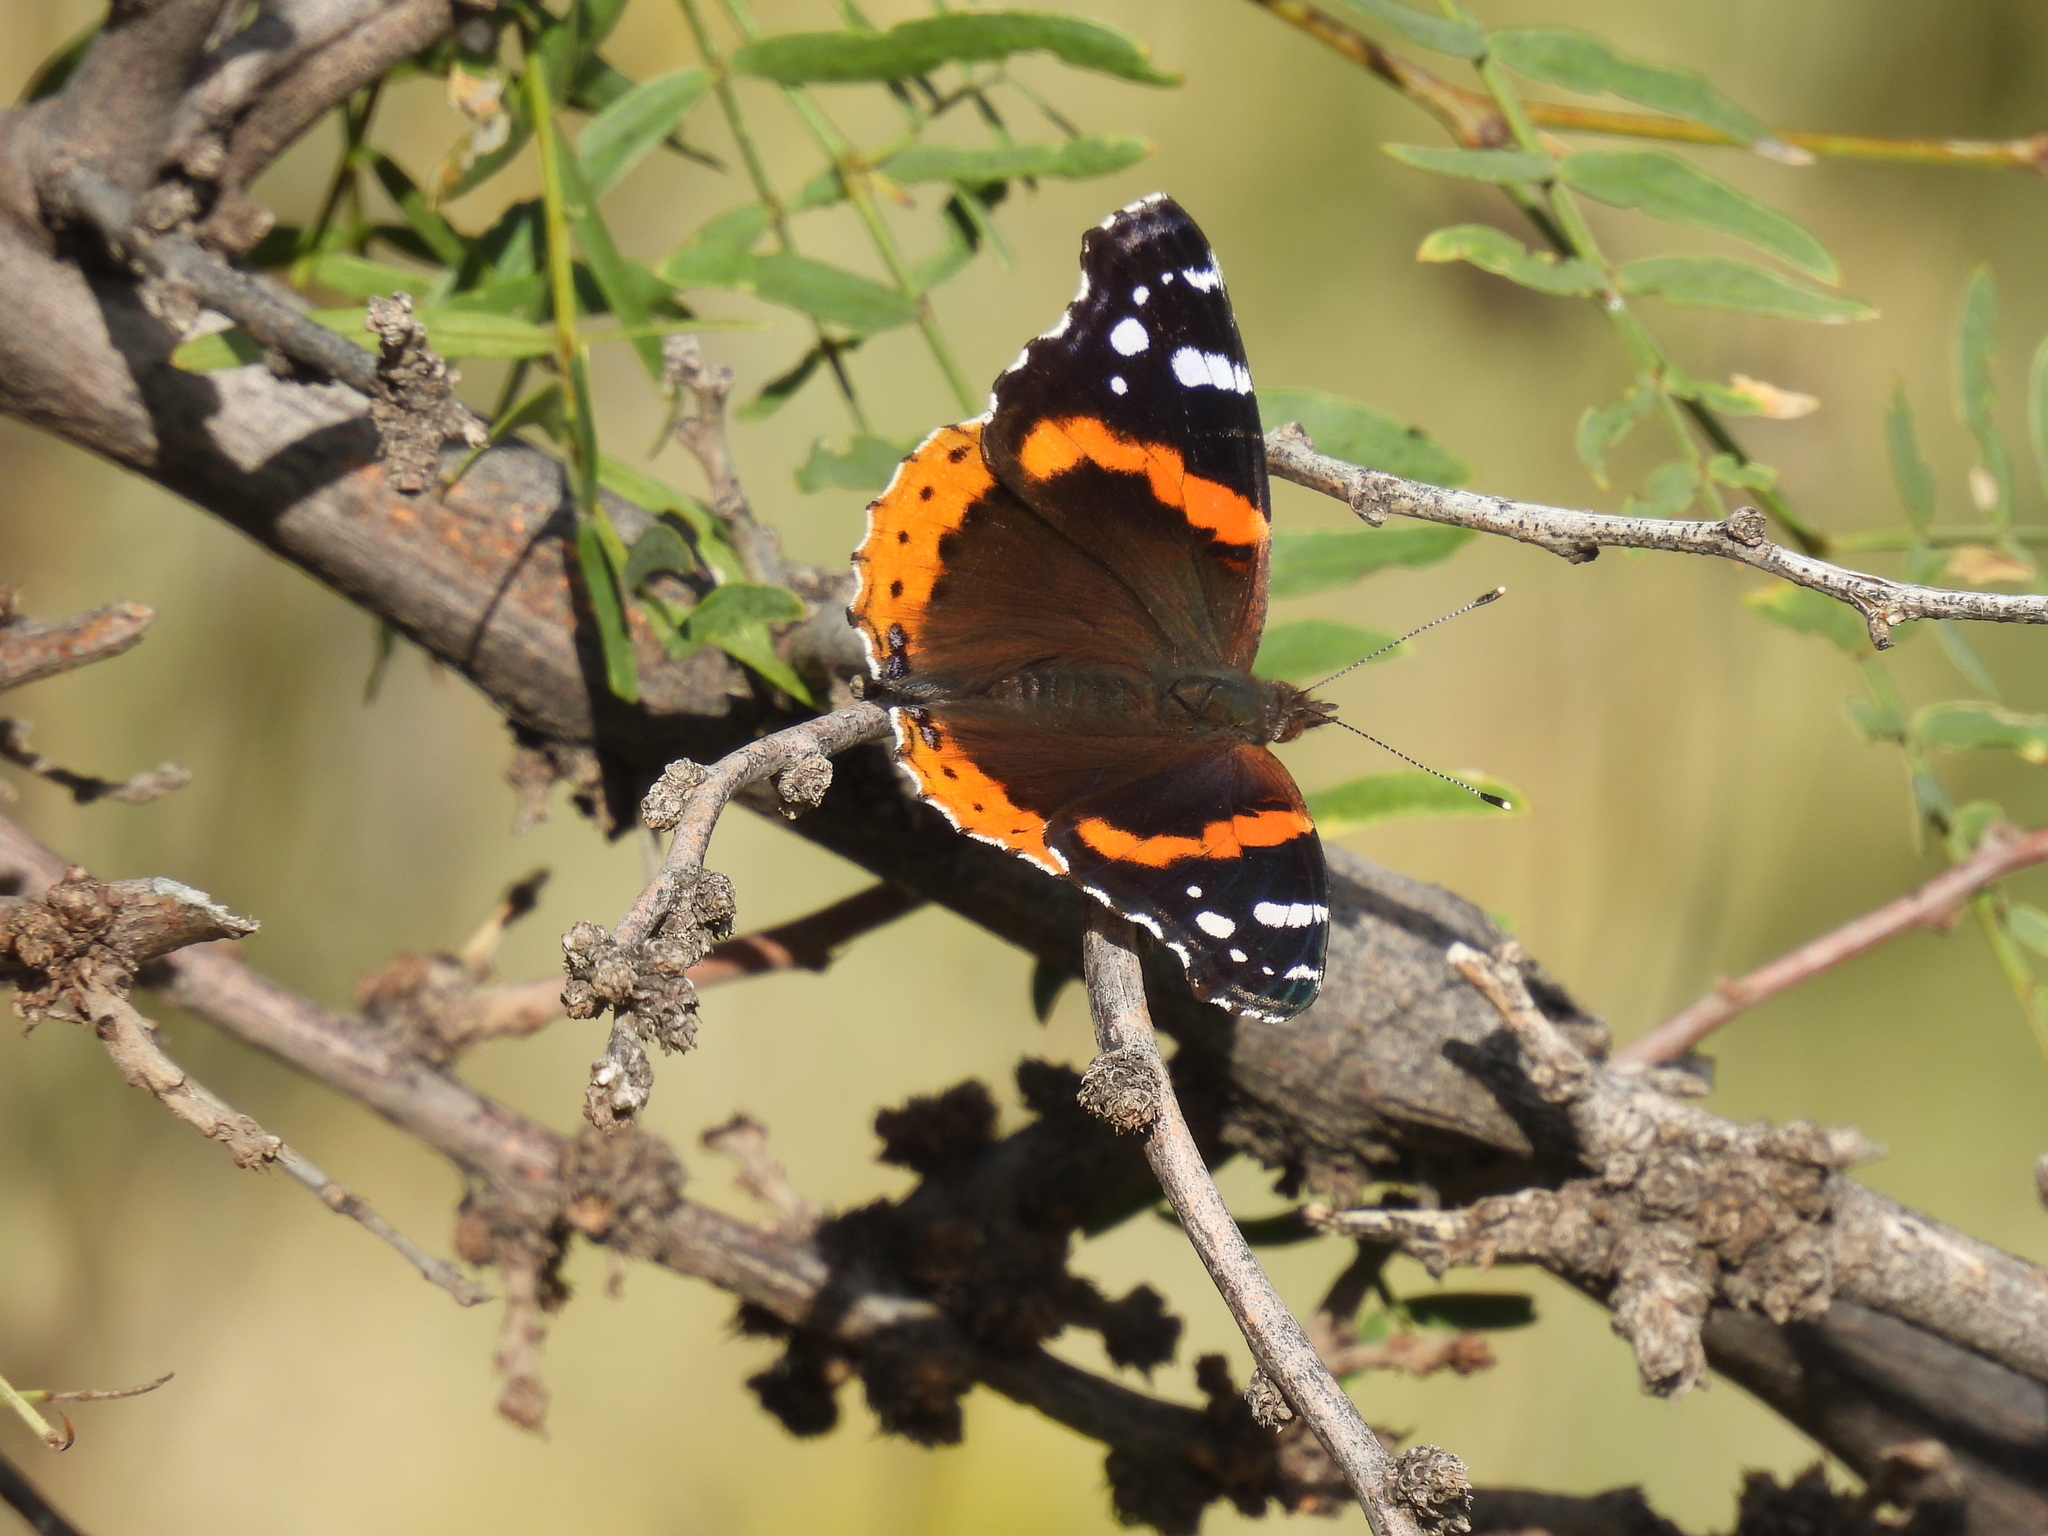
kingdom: Animalia
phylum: Arthropoda
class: Insecta
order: Lepidoptera
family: Nymphalidae
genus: Vanessa
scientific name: Vanessa atalanta
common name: Red admiral
